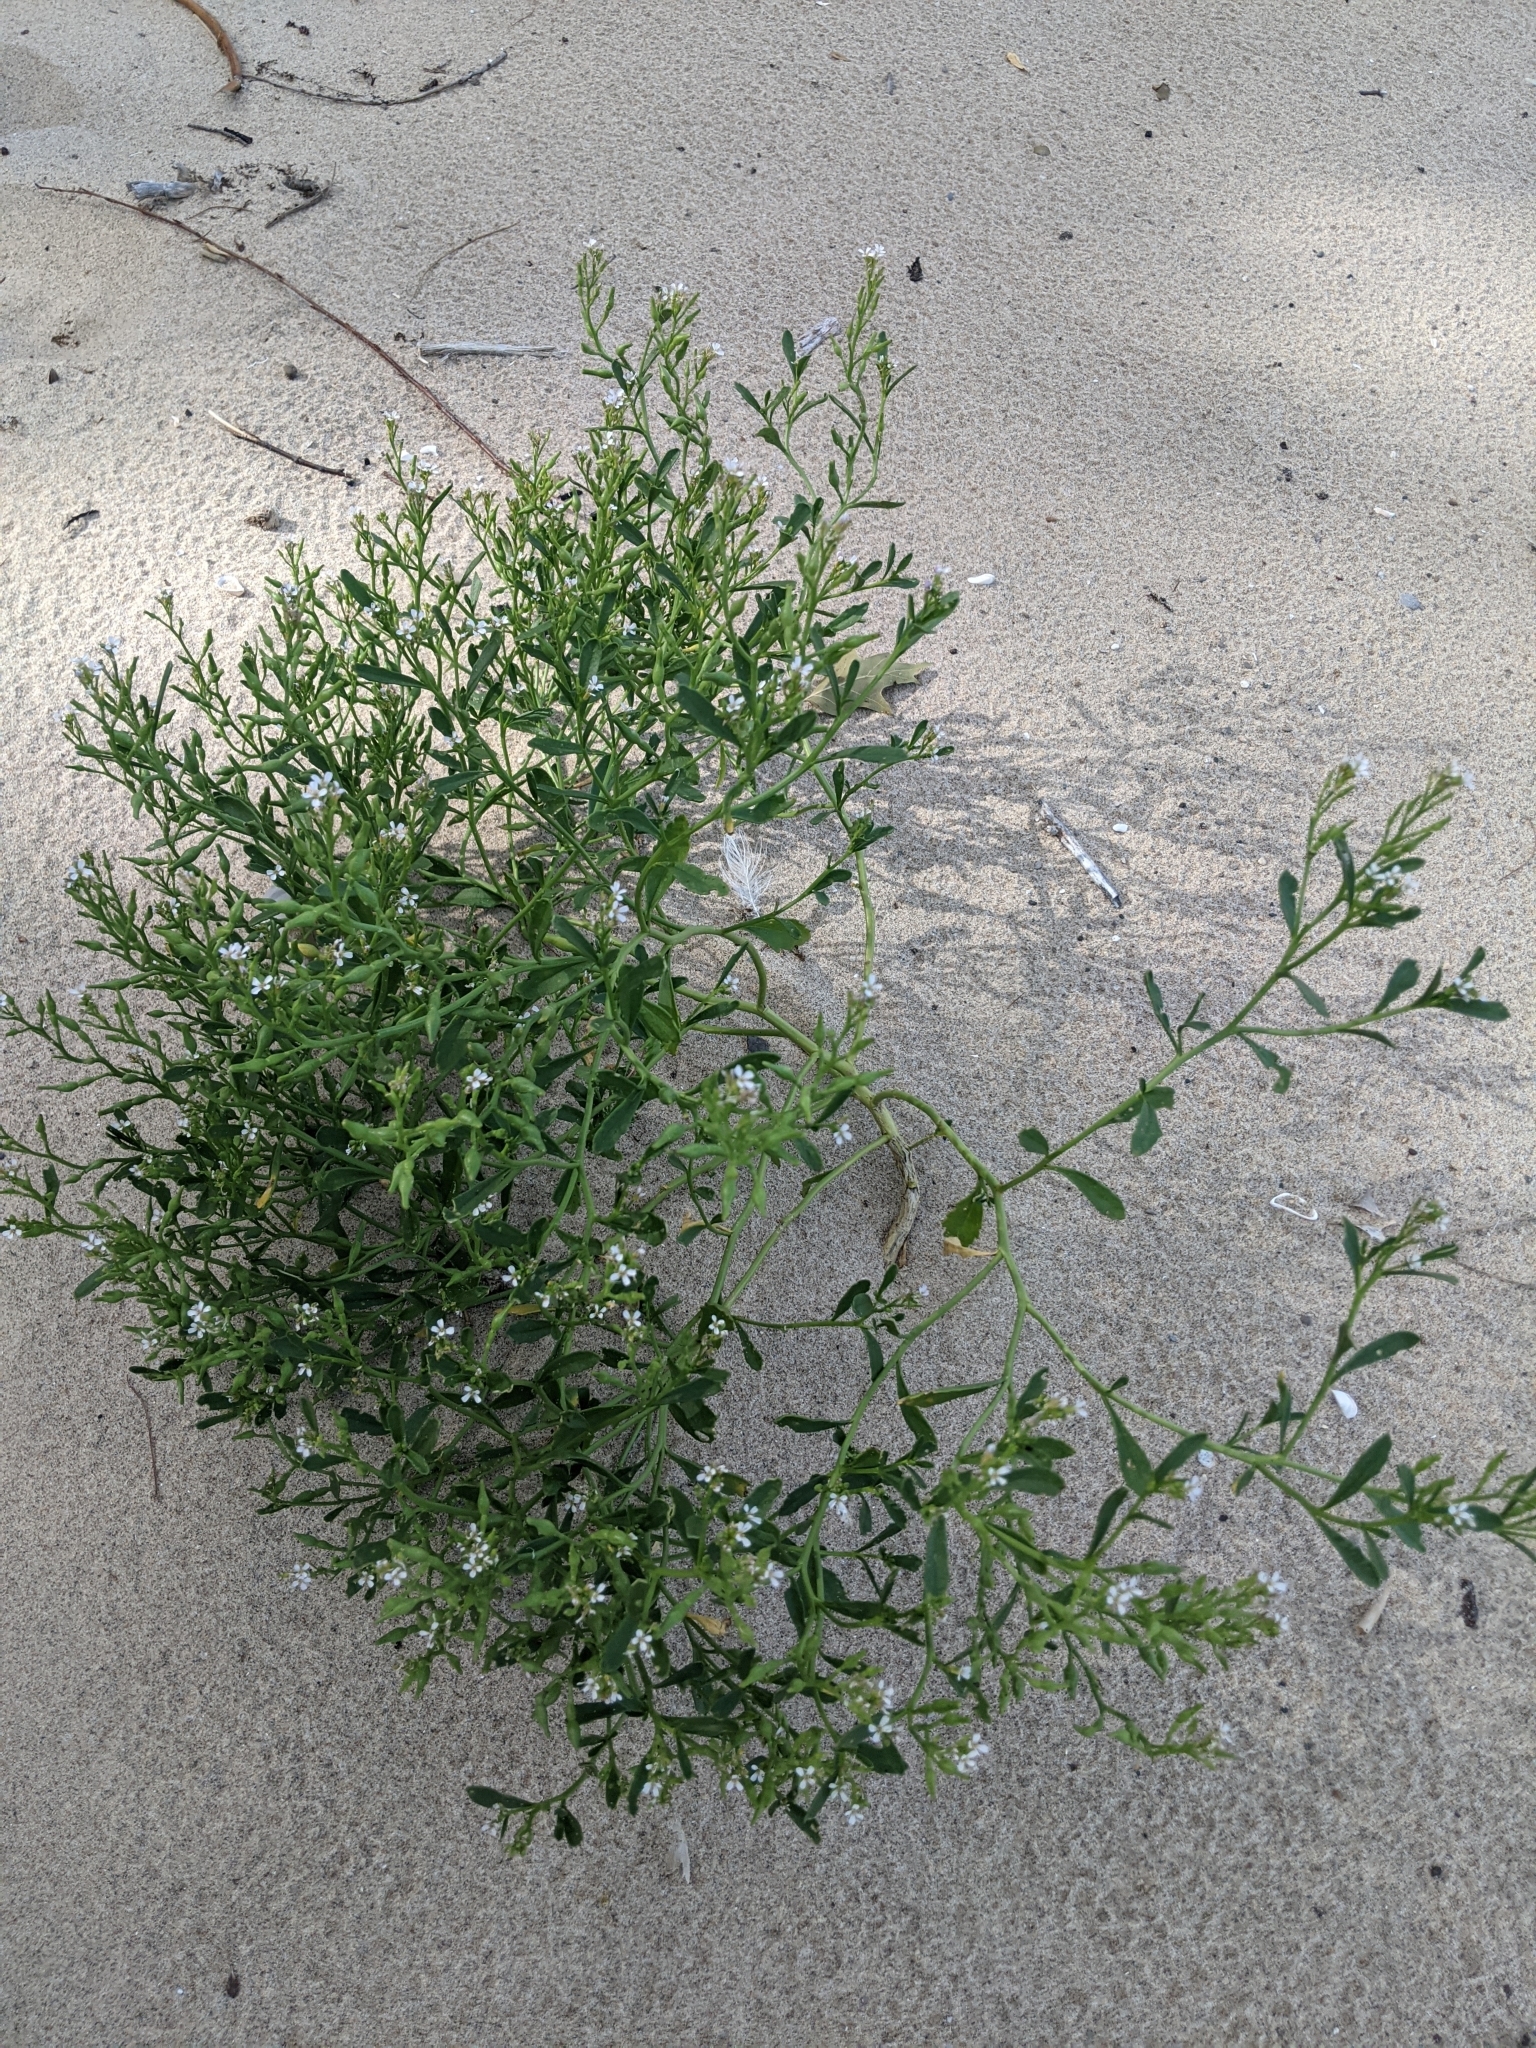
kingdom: Plantae
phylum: Tracheophyta
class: Magnoliopsida
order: Brassicales
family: Brassicaceae
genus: Cakile
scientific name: Cakile edentula
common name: American sea rocket
